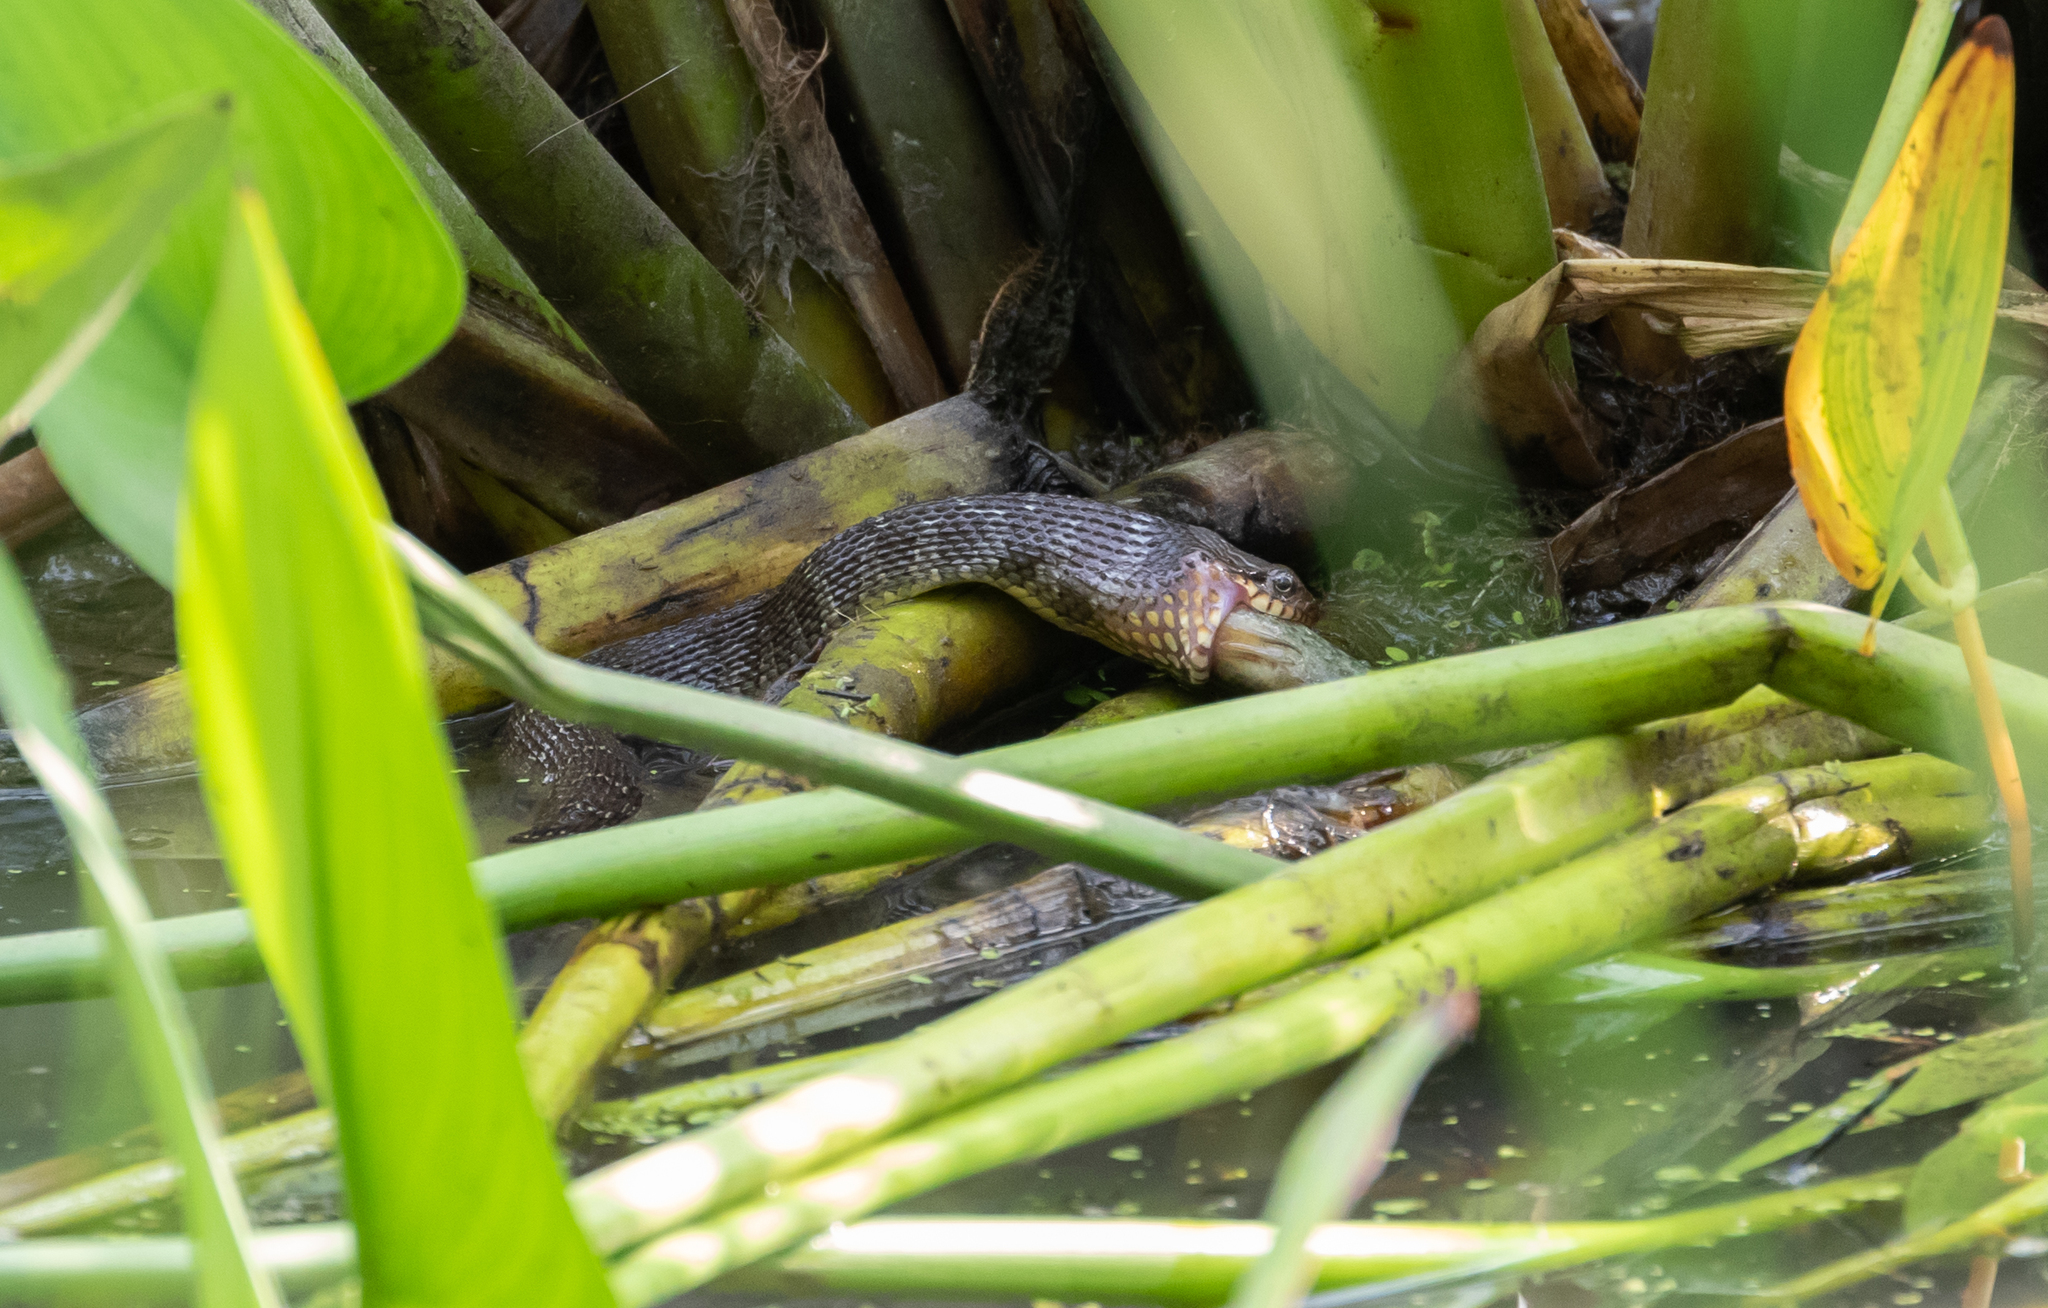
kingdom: Animalia
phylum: Chordata
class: Squamata
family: Colubridae
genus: Nerodia
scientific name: Nerodia erythrogaster
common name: Plainbelly water snake
